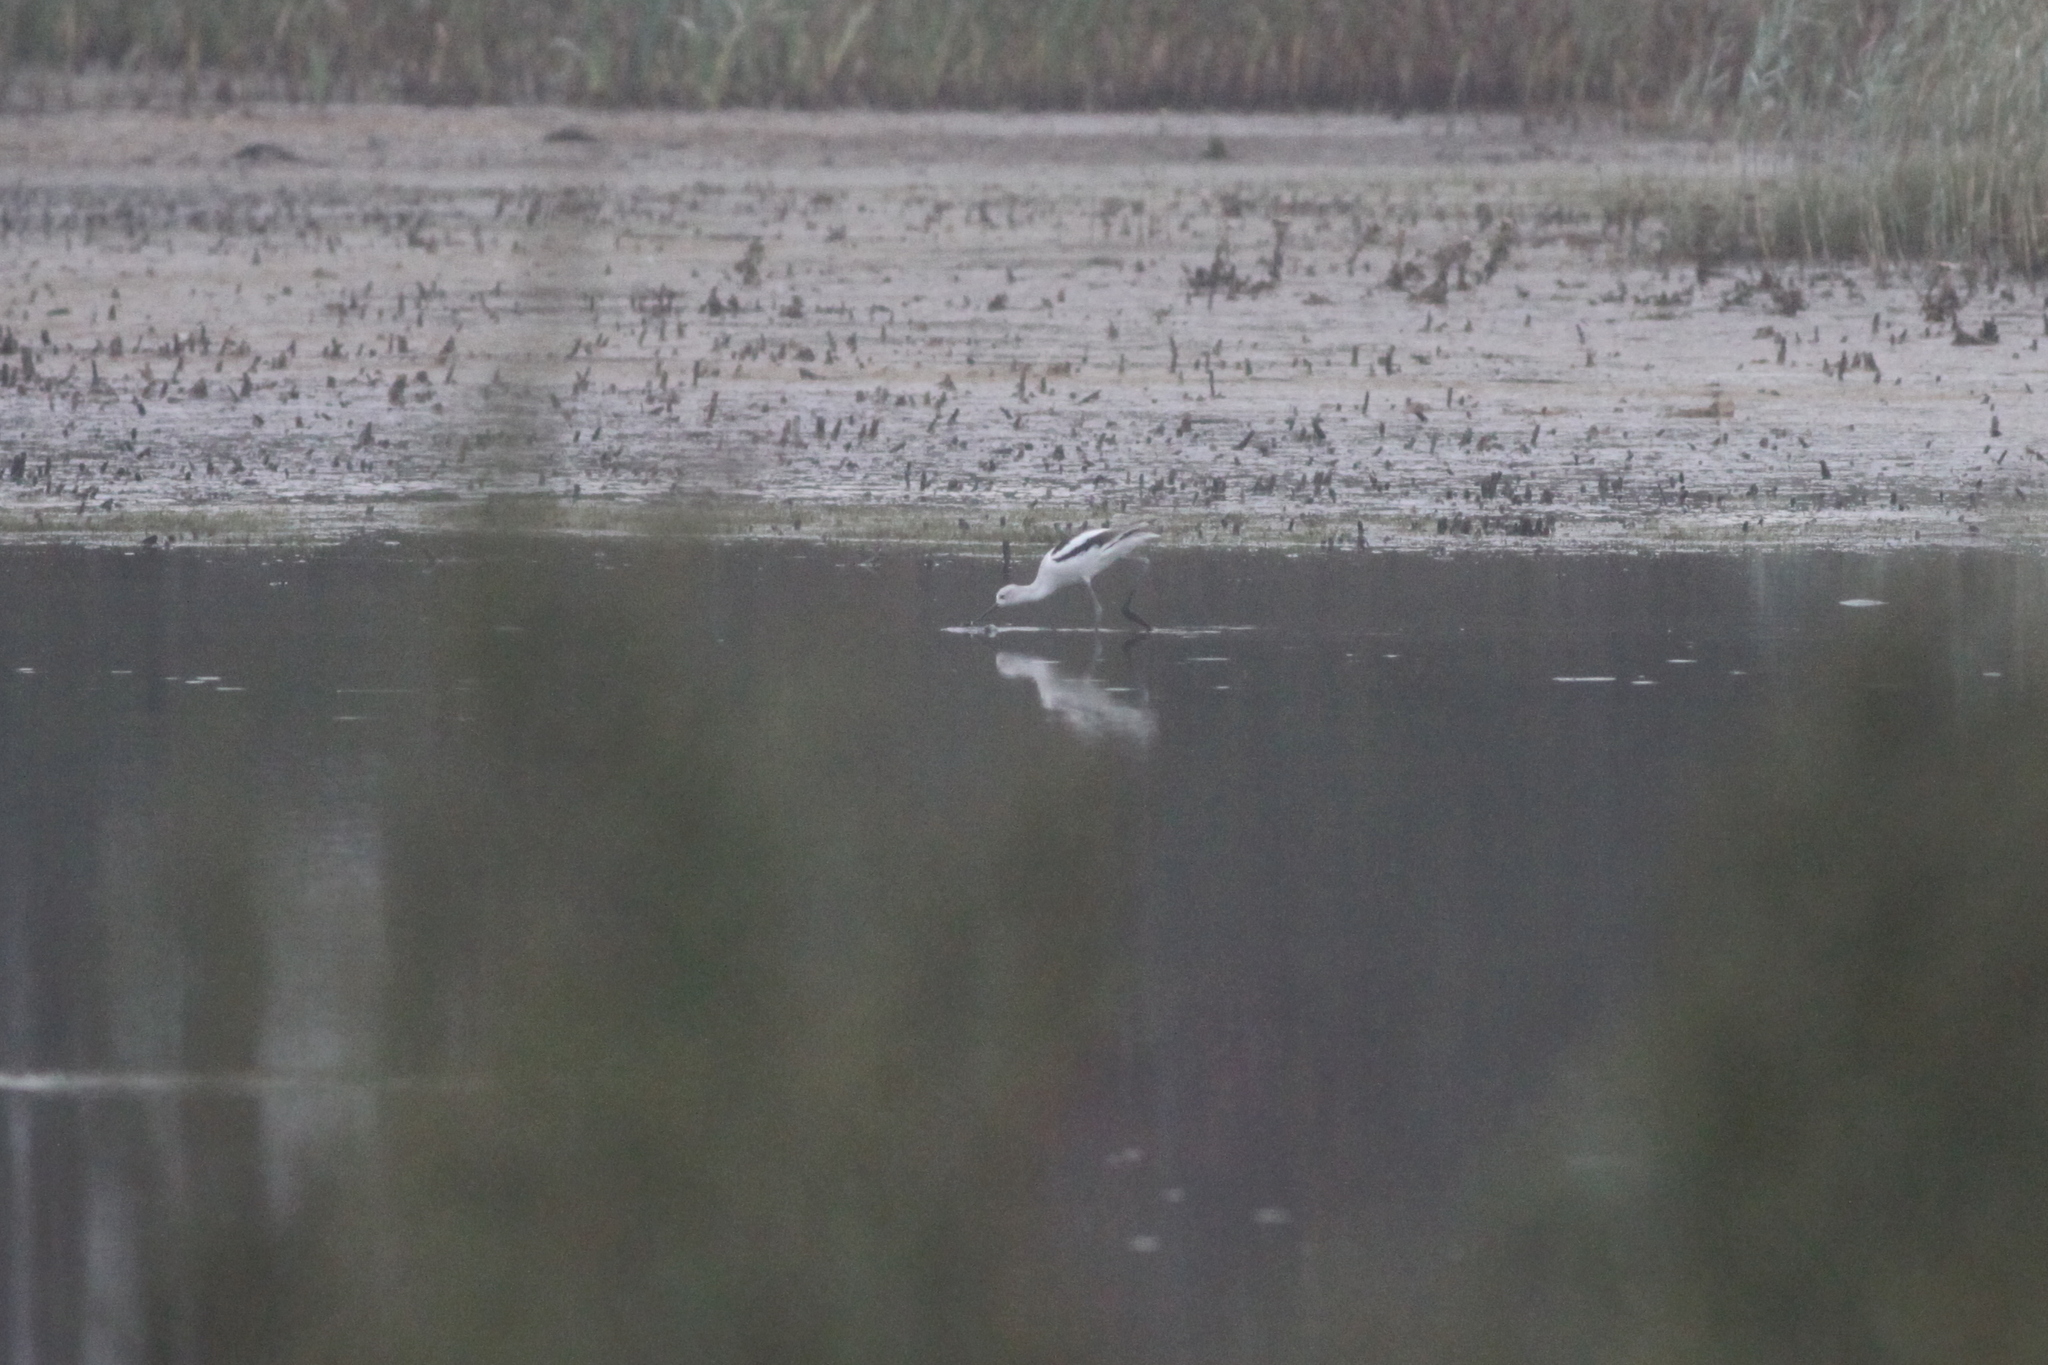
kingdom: Animalia
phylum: Chordata
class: Aves
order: Charadriiformes
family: Recurvirostridae
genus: Recurvirostra
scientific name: Recurvirostra americana
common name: American avocet
